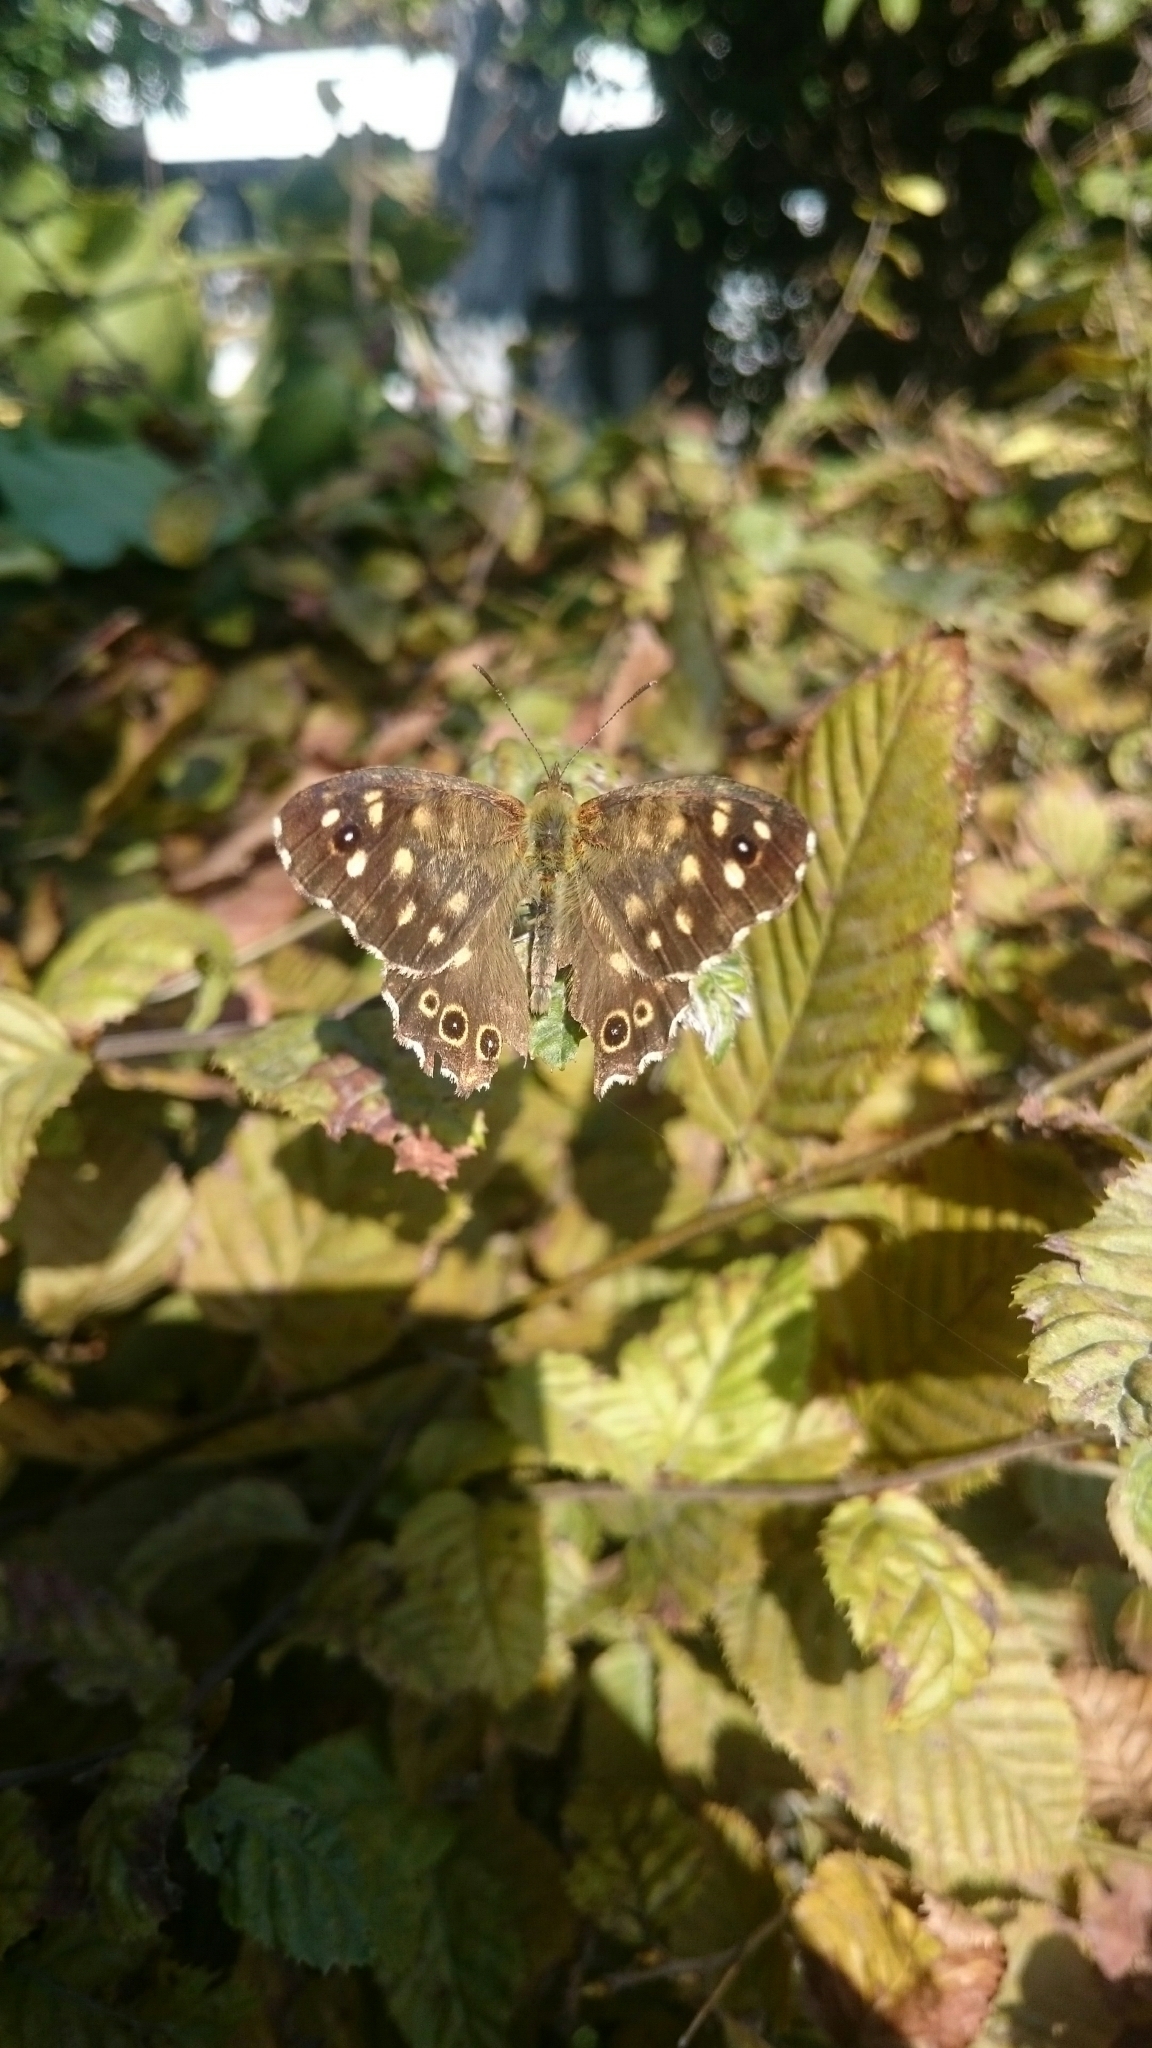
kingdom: Animalia
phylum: Arthropoda
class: Insecta
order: Lepidoptera
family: Nymphalidae
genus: Pararge
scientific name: Pararge aegeria
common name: Speckled wood
